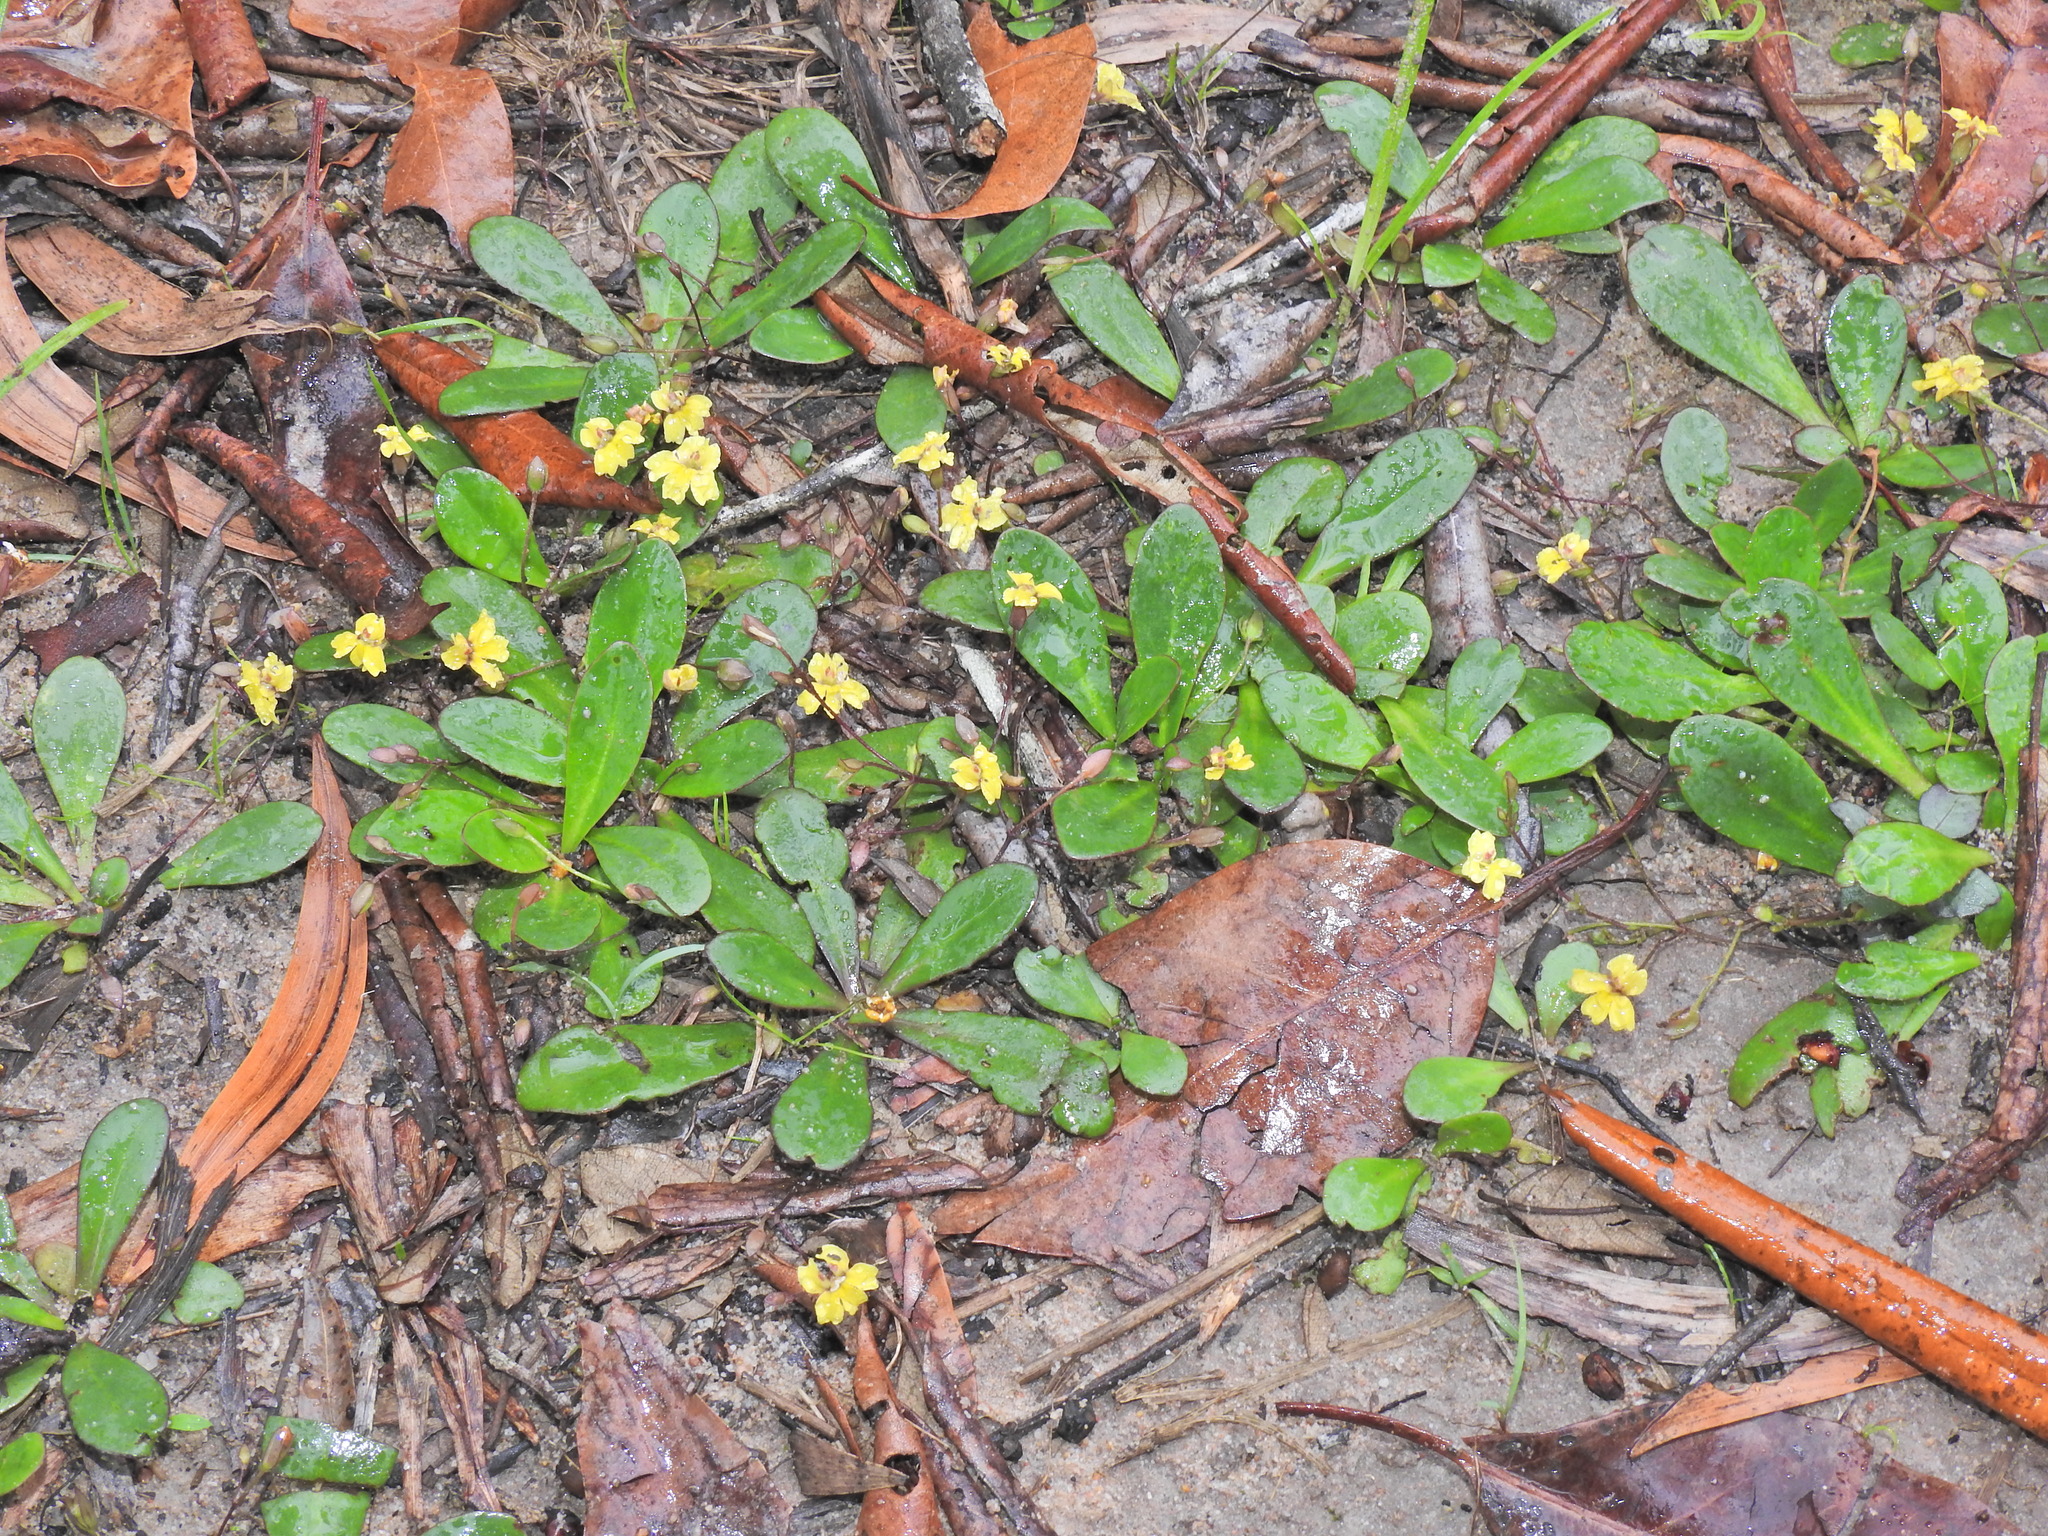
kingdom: Plantae
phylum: Tracheophyta
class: Magnoliopsida
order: Asterales
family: Goodeniaceae
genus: Goodenia
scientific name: Goodenia mystrophylla
